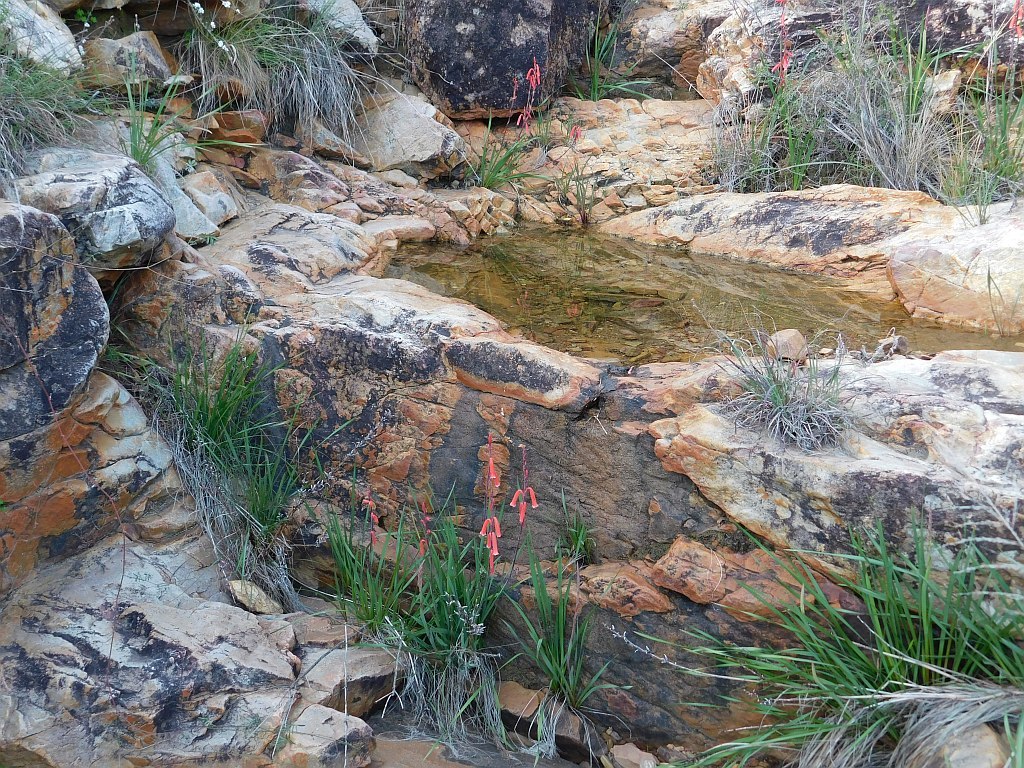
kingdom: Plantae
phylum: Tracheophyta
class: Liliopsida
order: Asparagales
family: Iridaceae
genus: Watsonia
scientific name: Watsonia aletroides
